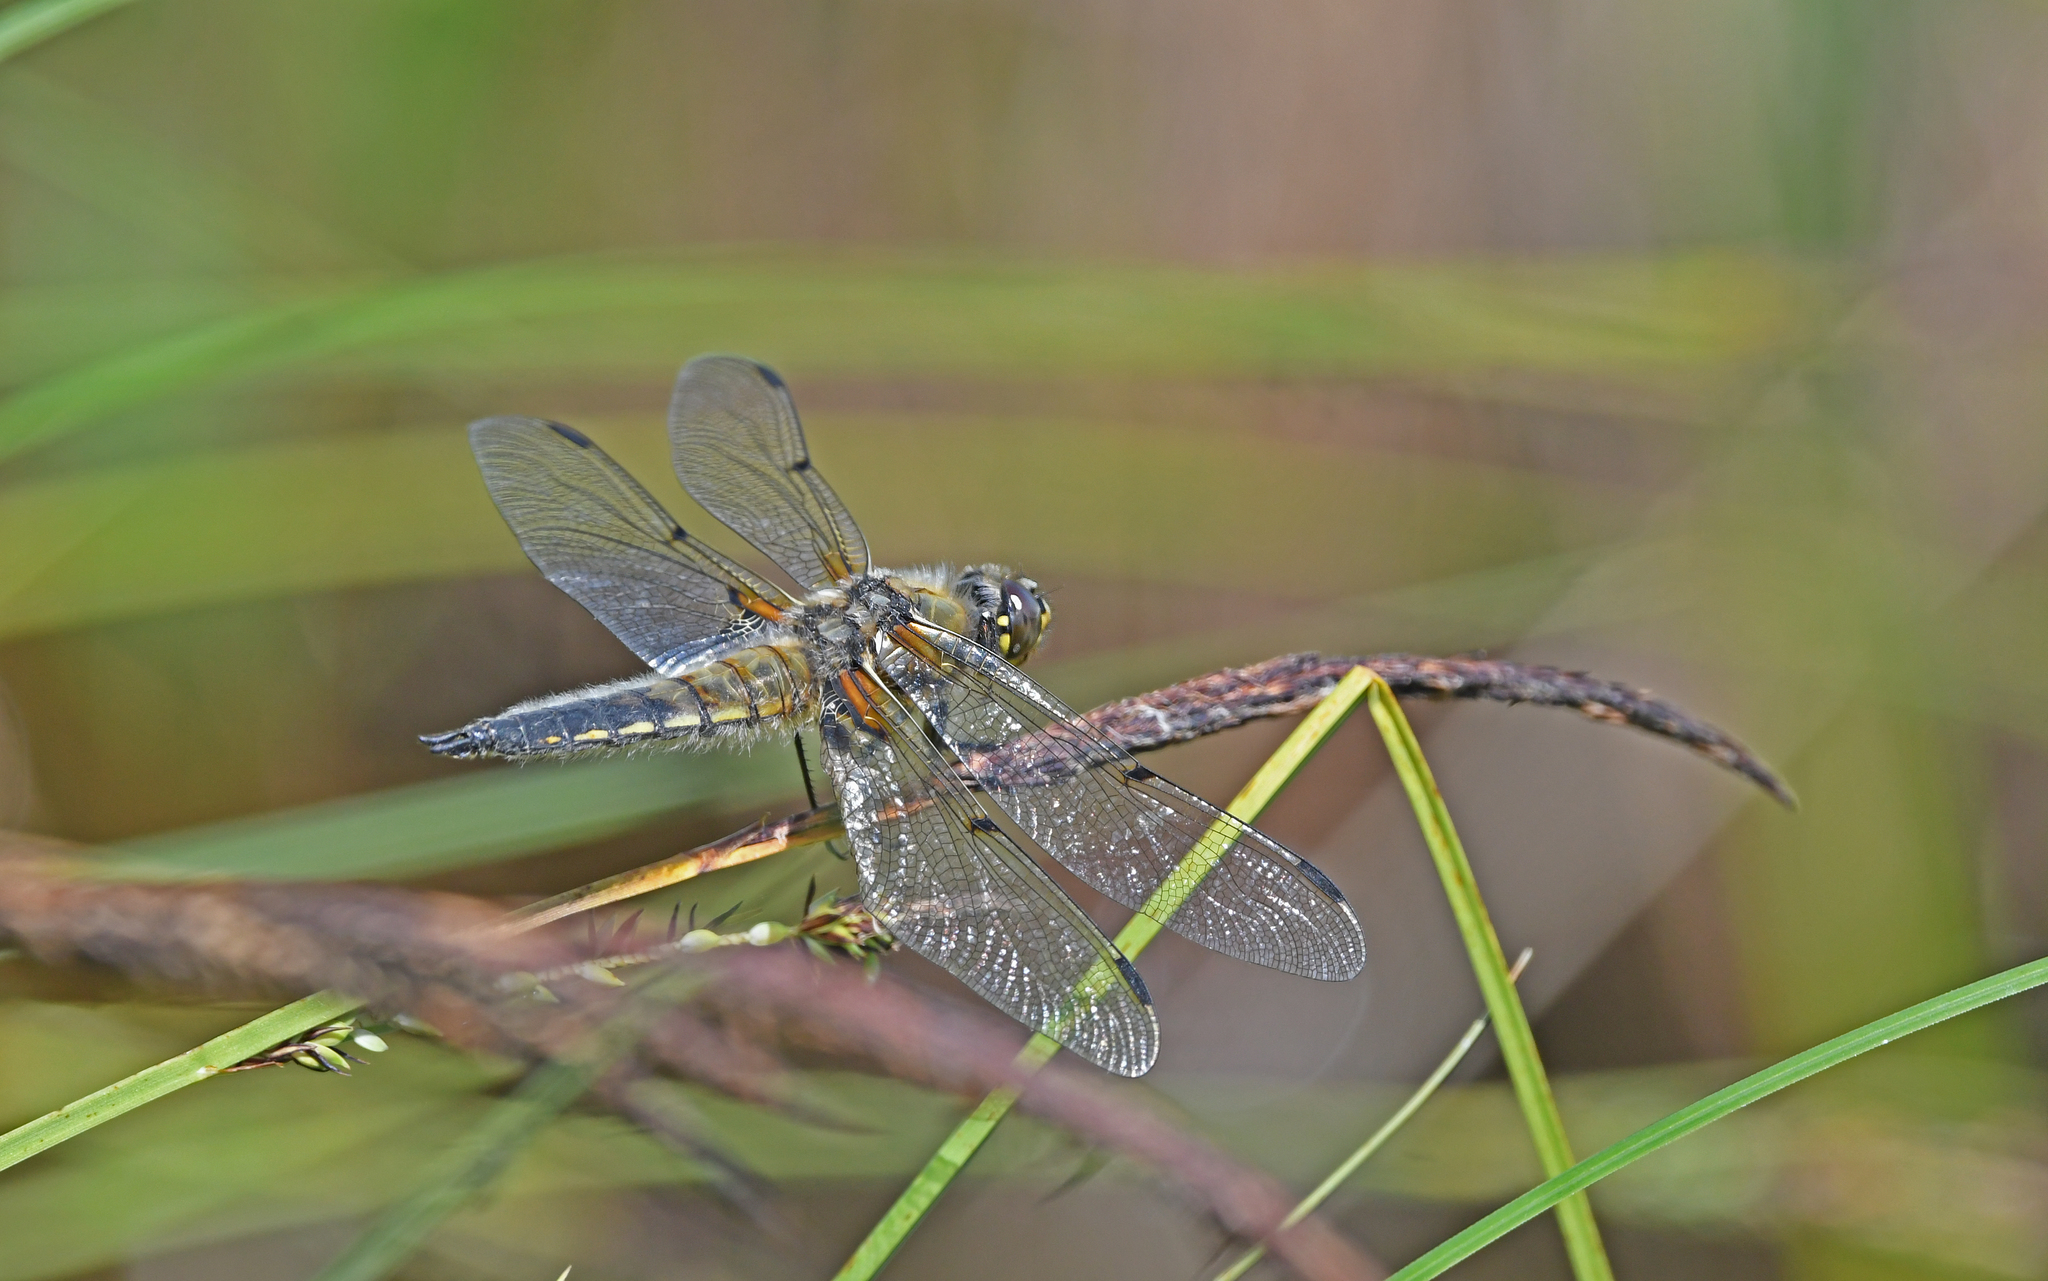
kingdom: Animalia
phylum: Arthropoda
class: Insecta
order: Odonata
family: Libellulidae
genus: Libellula
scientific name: Libellula quadrimaculata
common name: Four-spotted chaser
